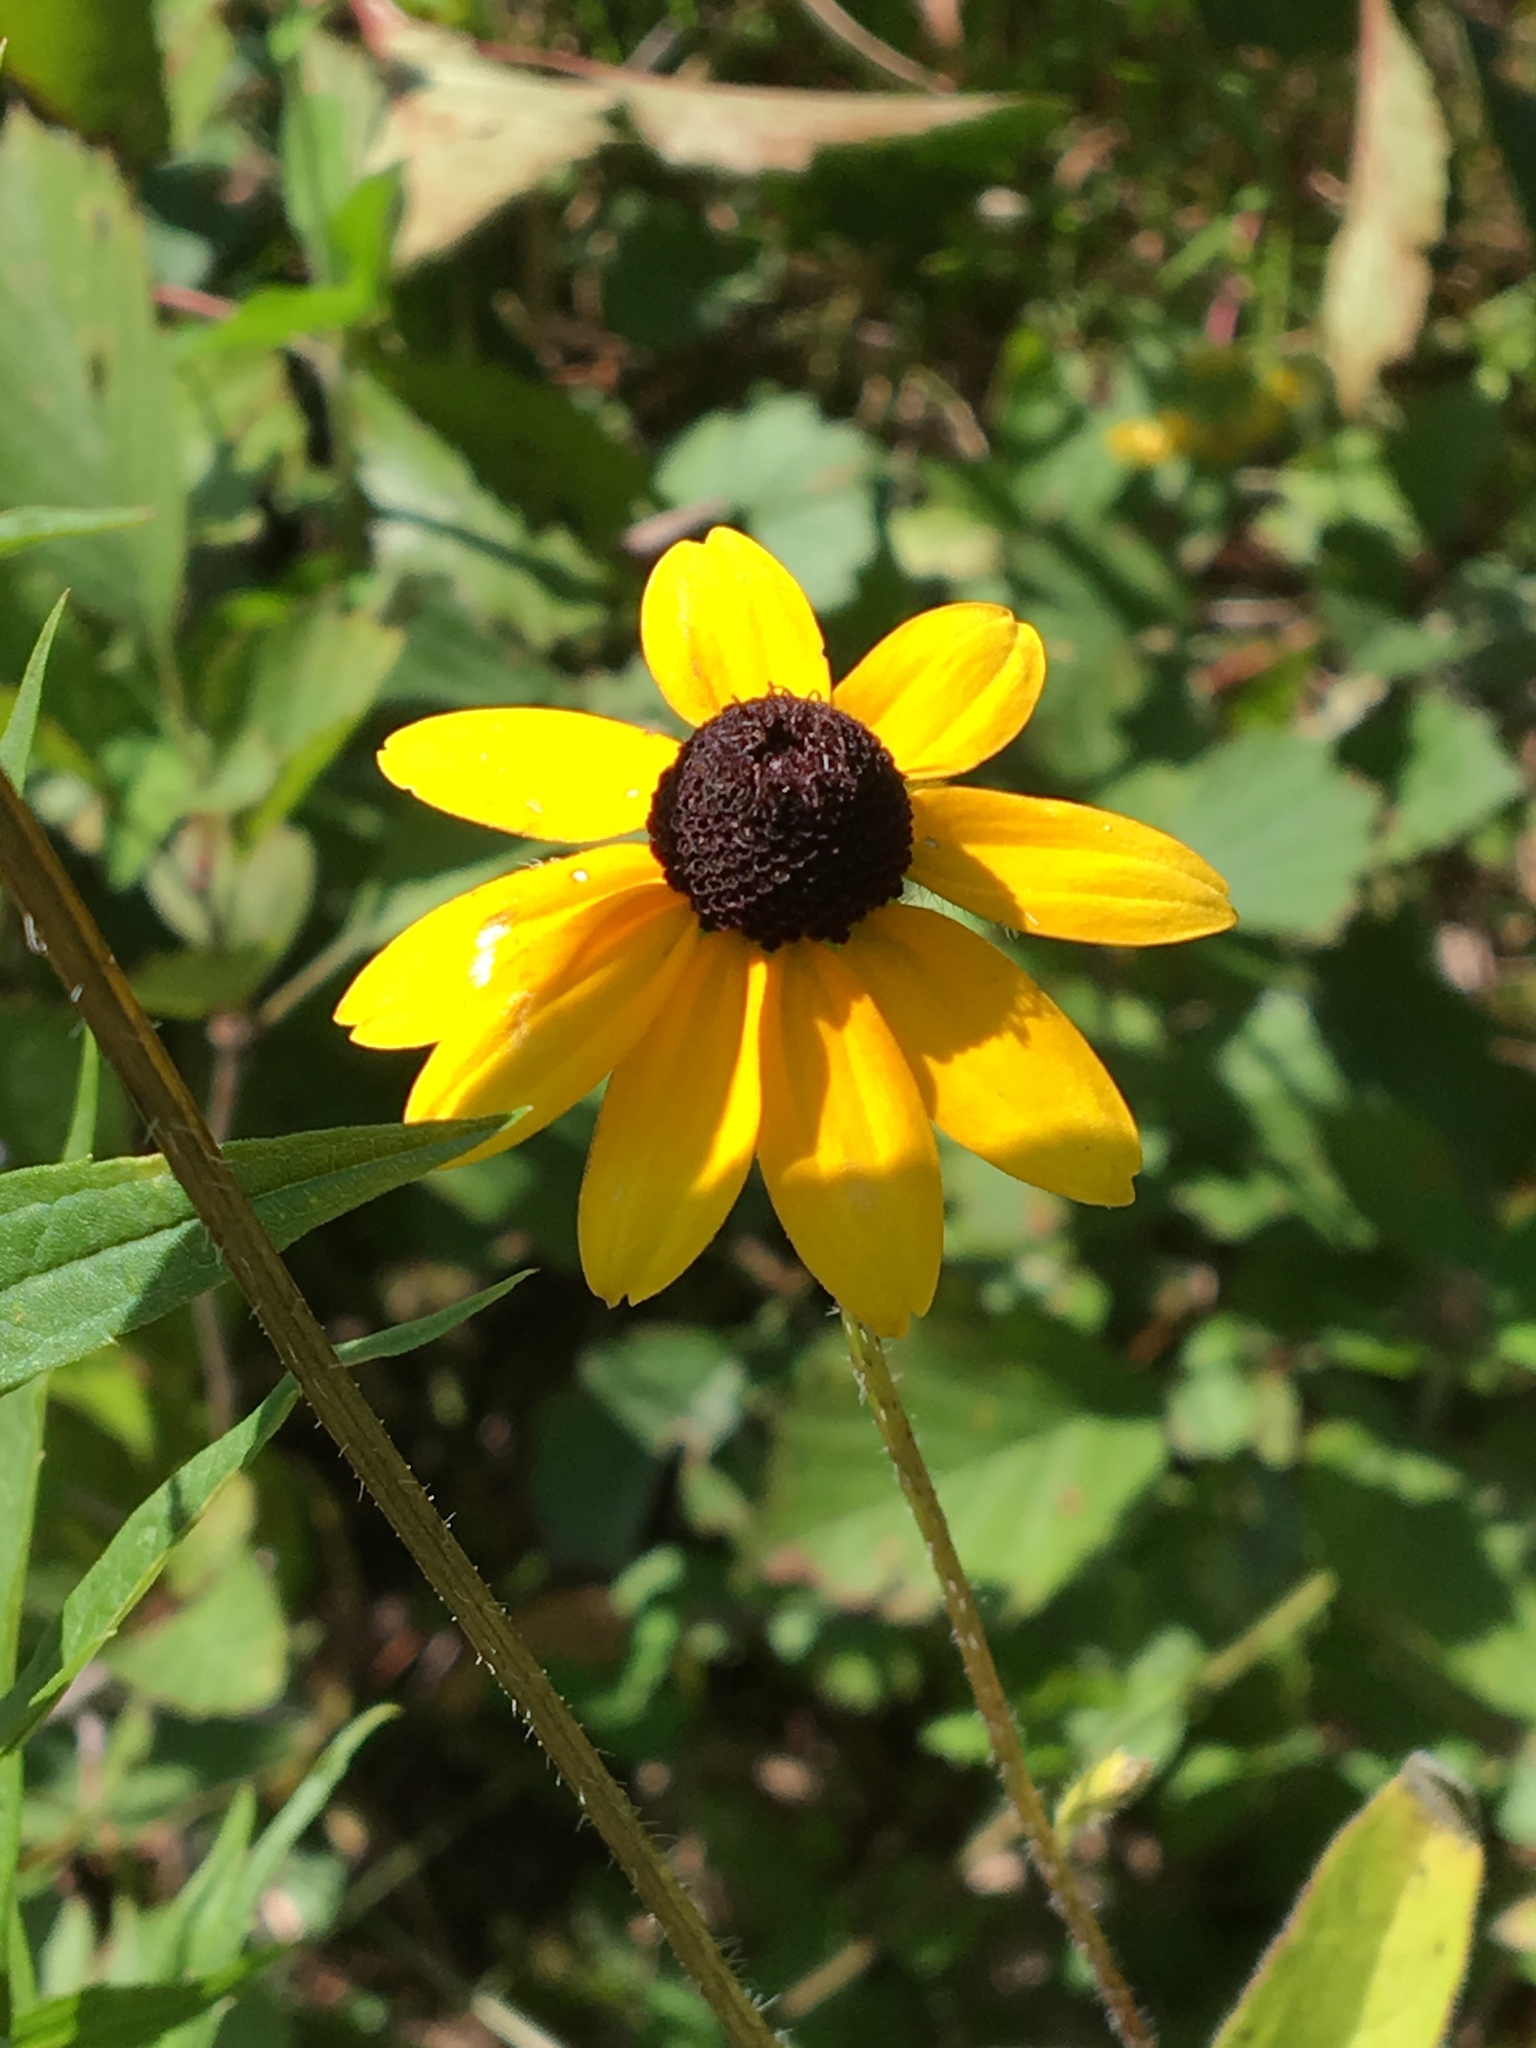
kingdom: Plantae
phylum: Tracheophyta
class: Magnoliopsida
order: Asterales
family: Asteraceae
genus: Rudbeckia
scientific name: Rudbeckia hirta
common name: Black-eyed-susan
